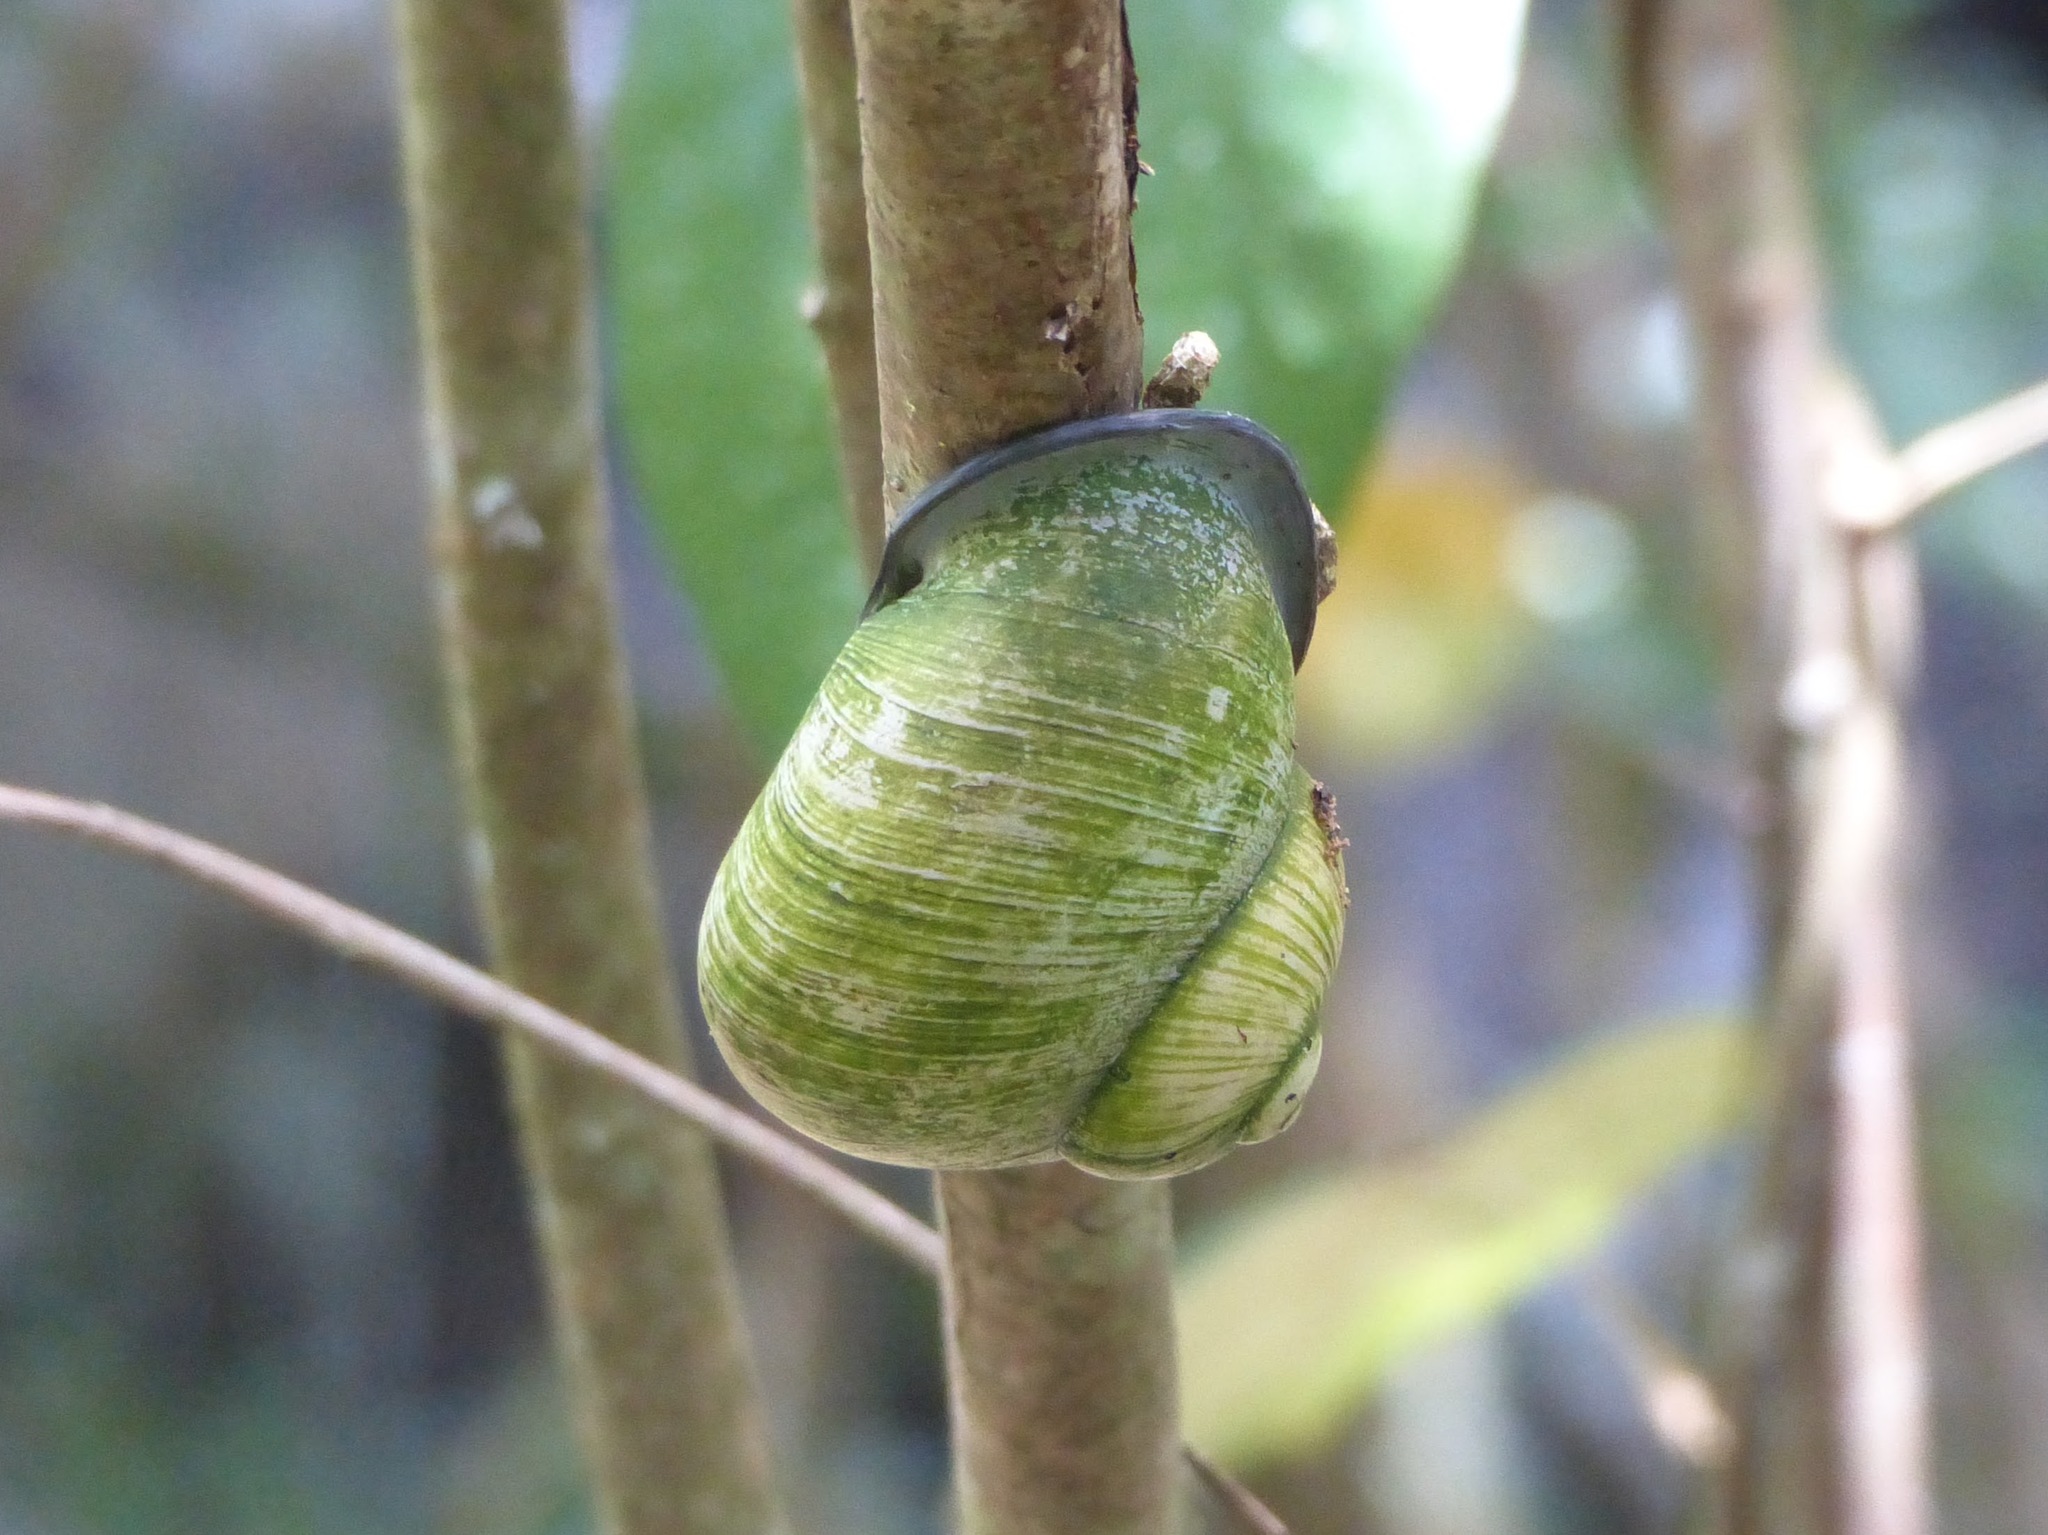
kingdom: Animalia
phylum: Mollusca
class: Gastropoda
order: Stylommatophora
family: Acavidae
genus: Acavus
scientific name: Acavus phoenix
